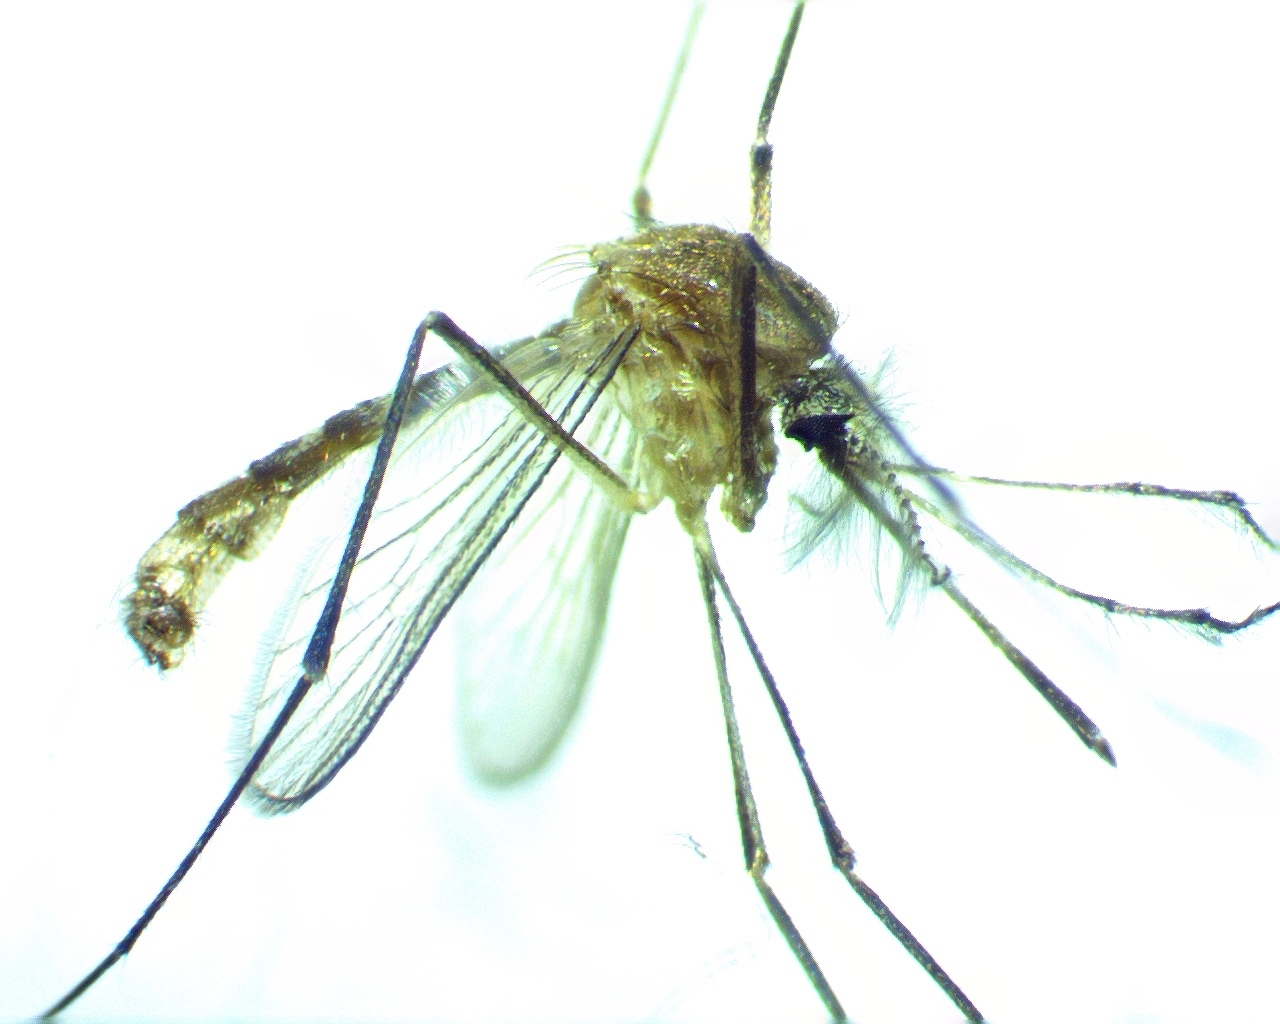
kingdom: Animalia
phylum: Arthropoda
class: Insecta
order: Diptera
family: Culicidae
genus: Culex
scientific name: Culex quinquefasciatus
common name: Southern house mosquito
